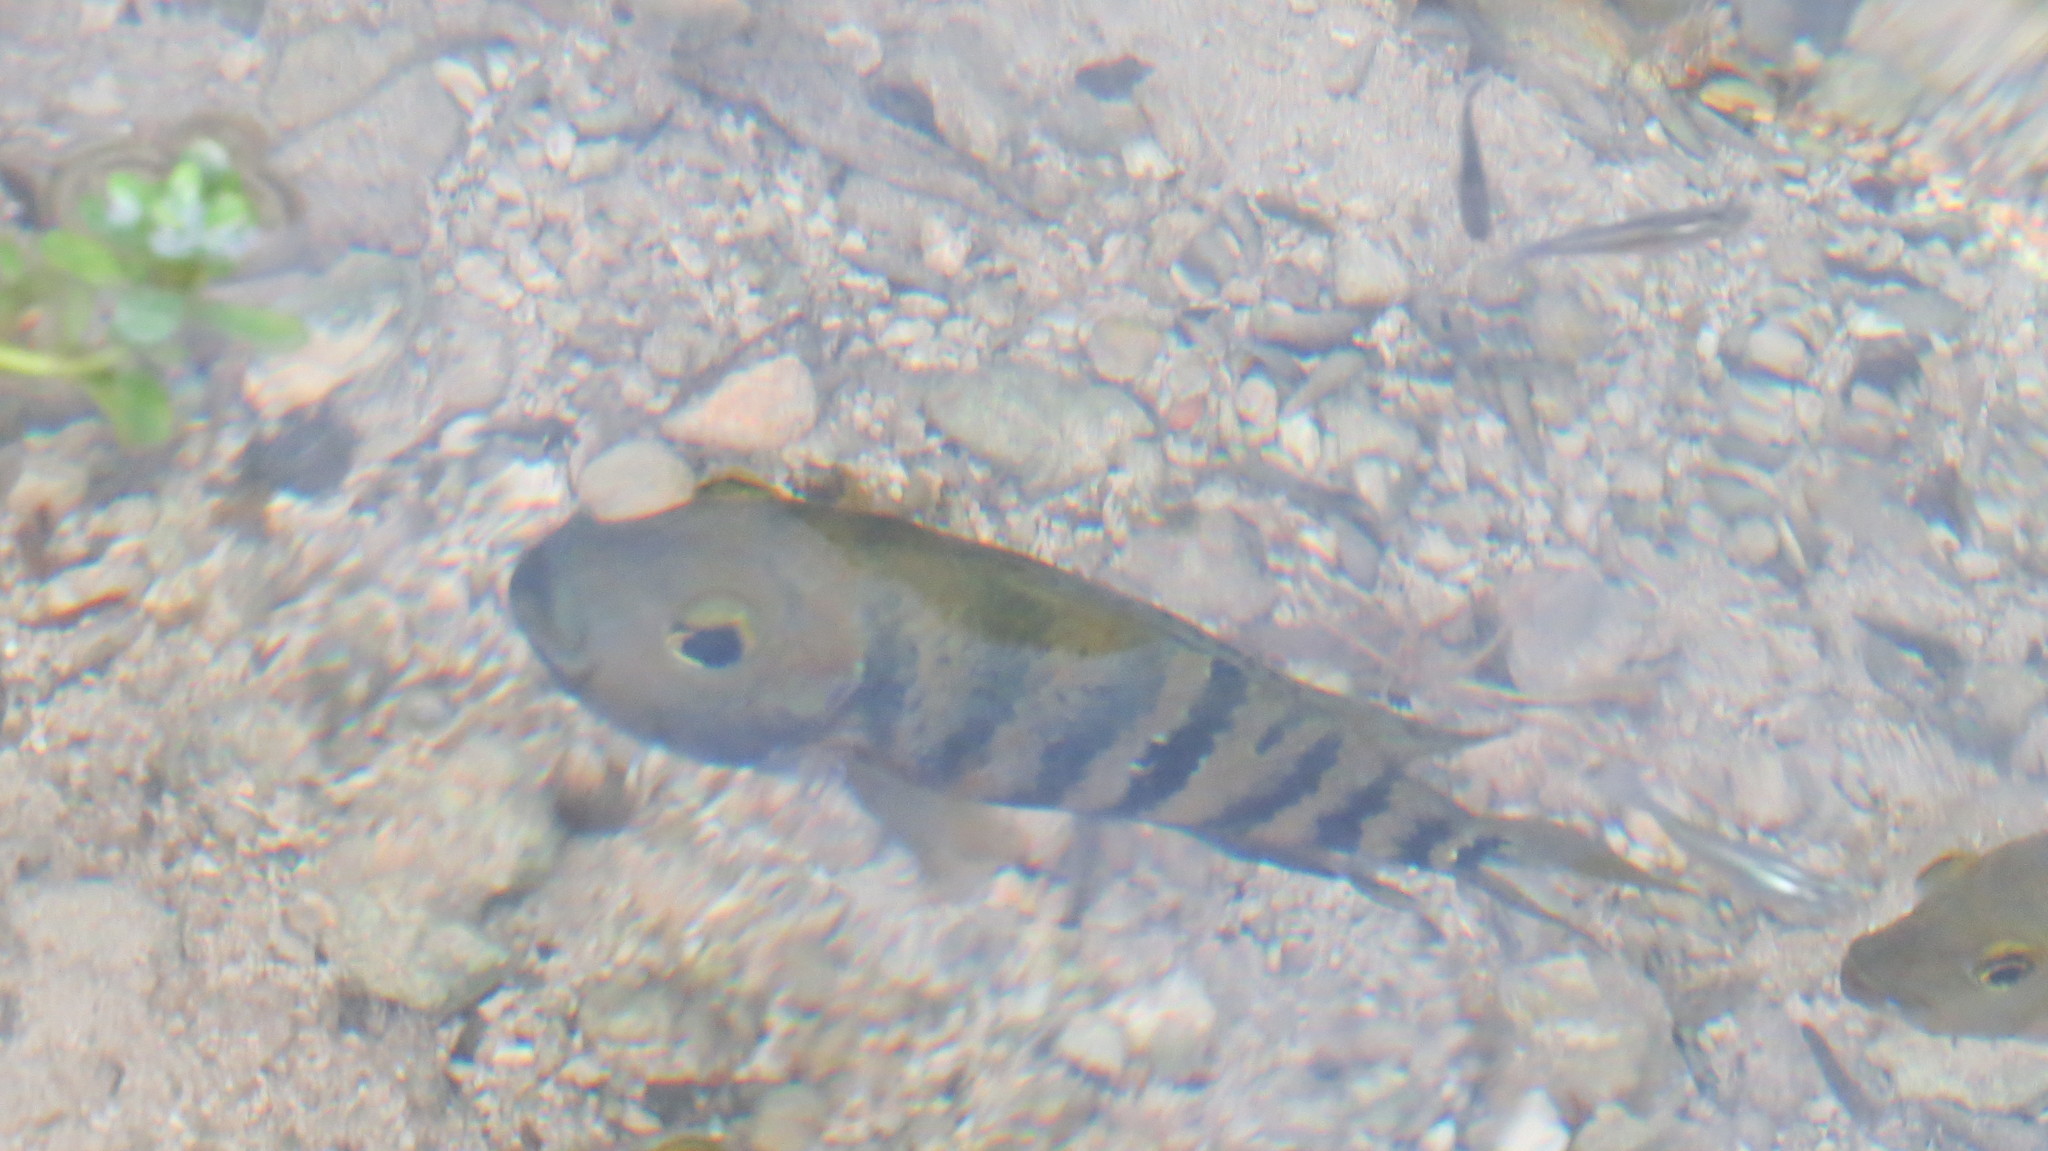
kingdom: Animalia
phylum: Chordata
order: Perciformes
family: Cichlidae
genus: Mayaheros
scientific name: Mayaheros urophthalmus
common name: Mayan cichlid
